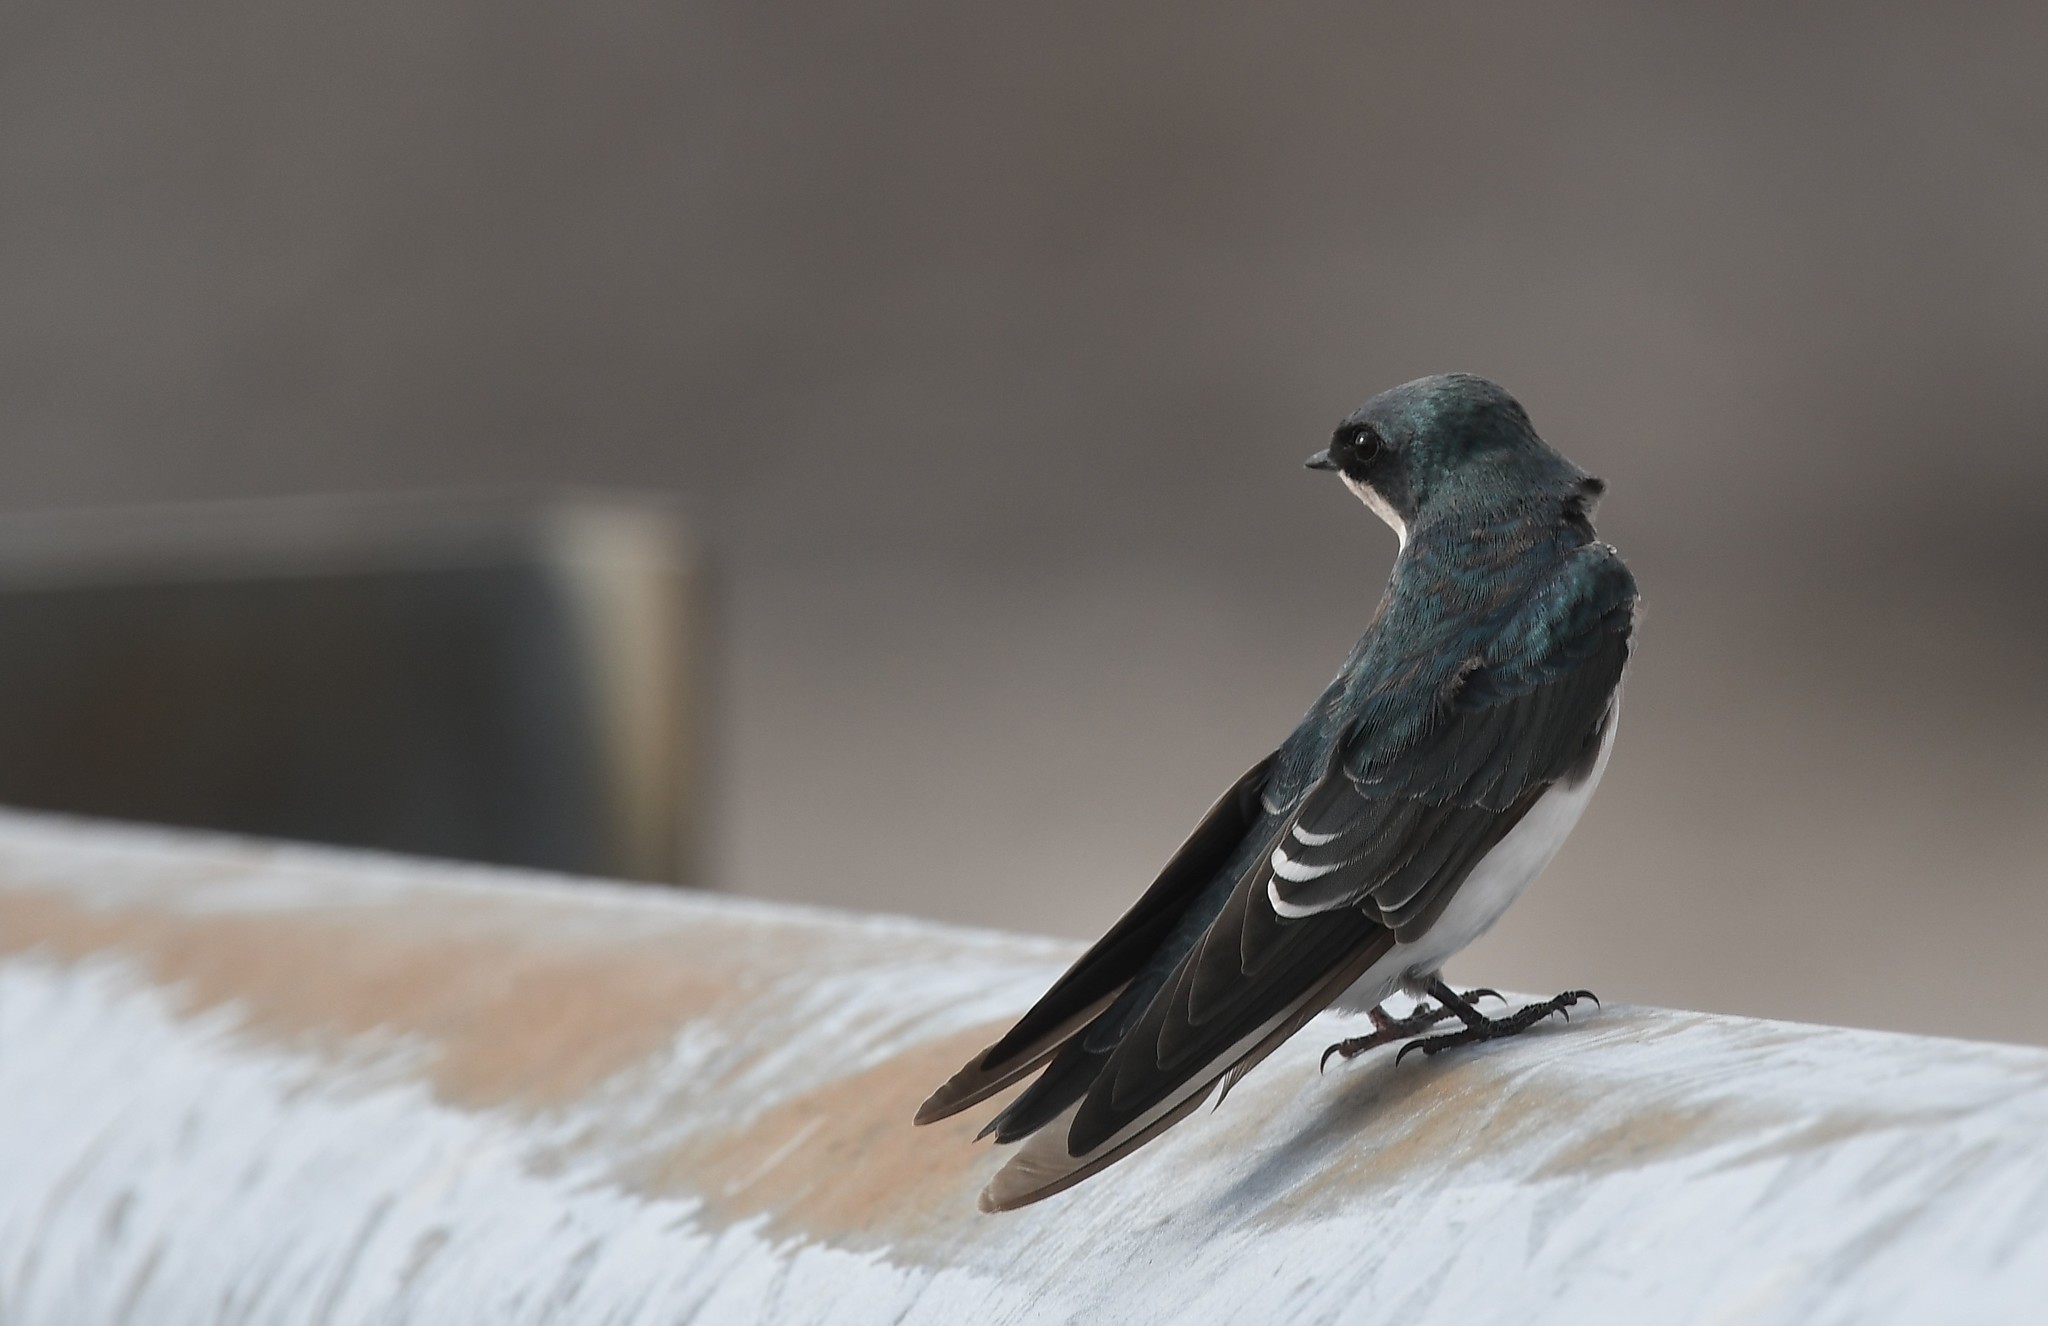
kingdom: Animalia
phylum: Chordata
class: Aves
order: Passeriformes
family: Hirundinidae
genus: Tachycineta
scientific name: Tachycineta bicolor
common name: Tree swallow
